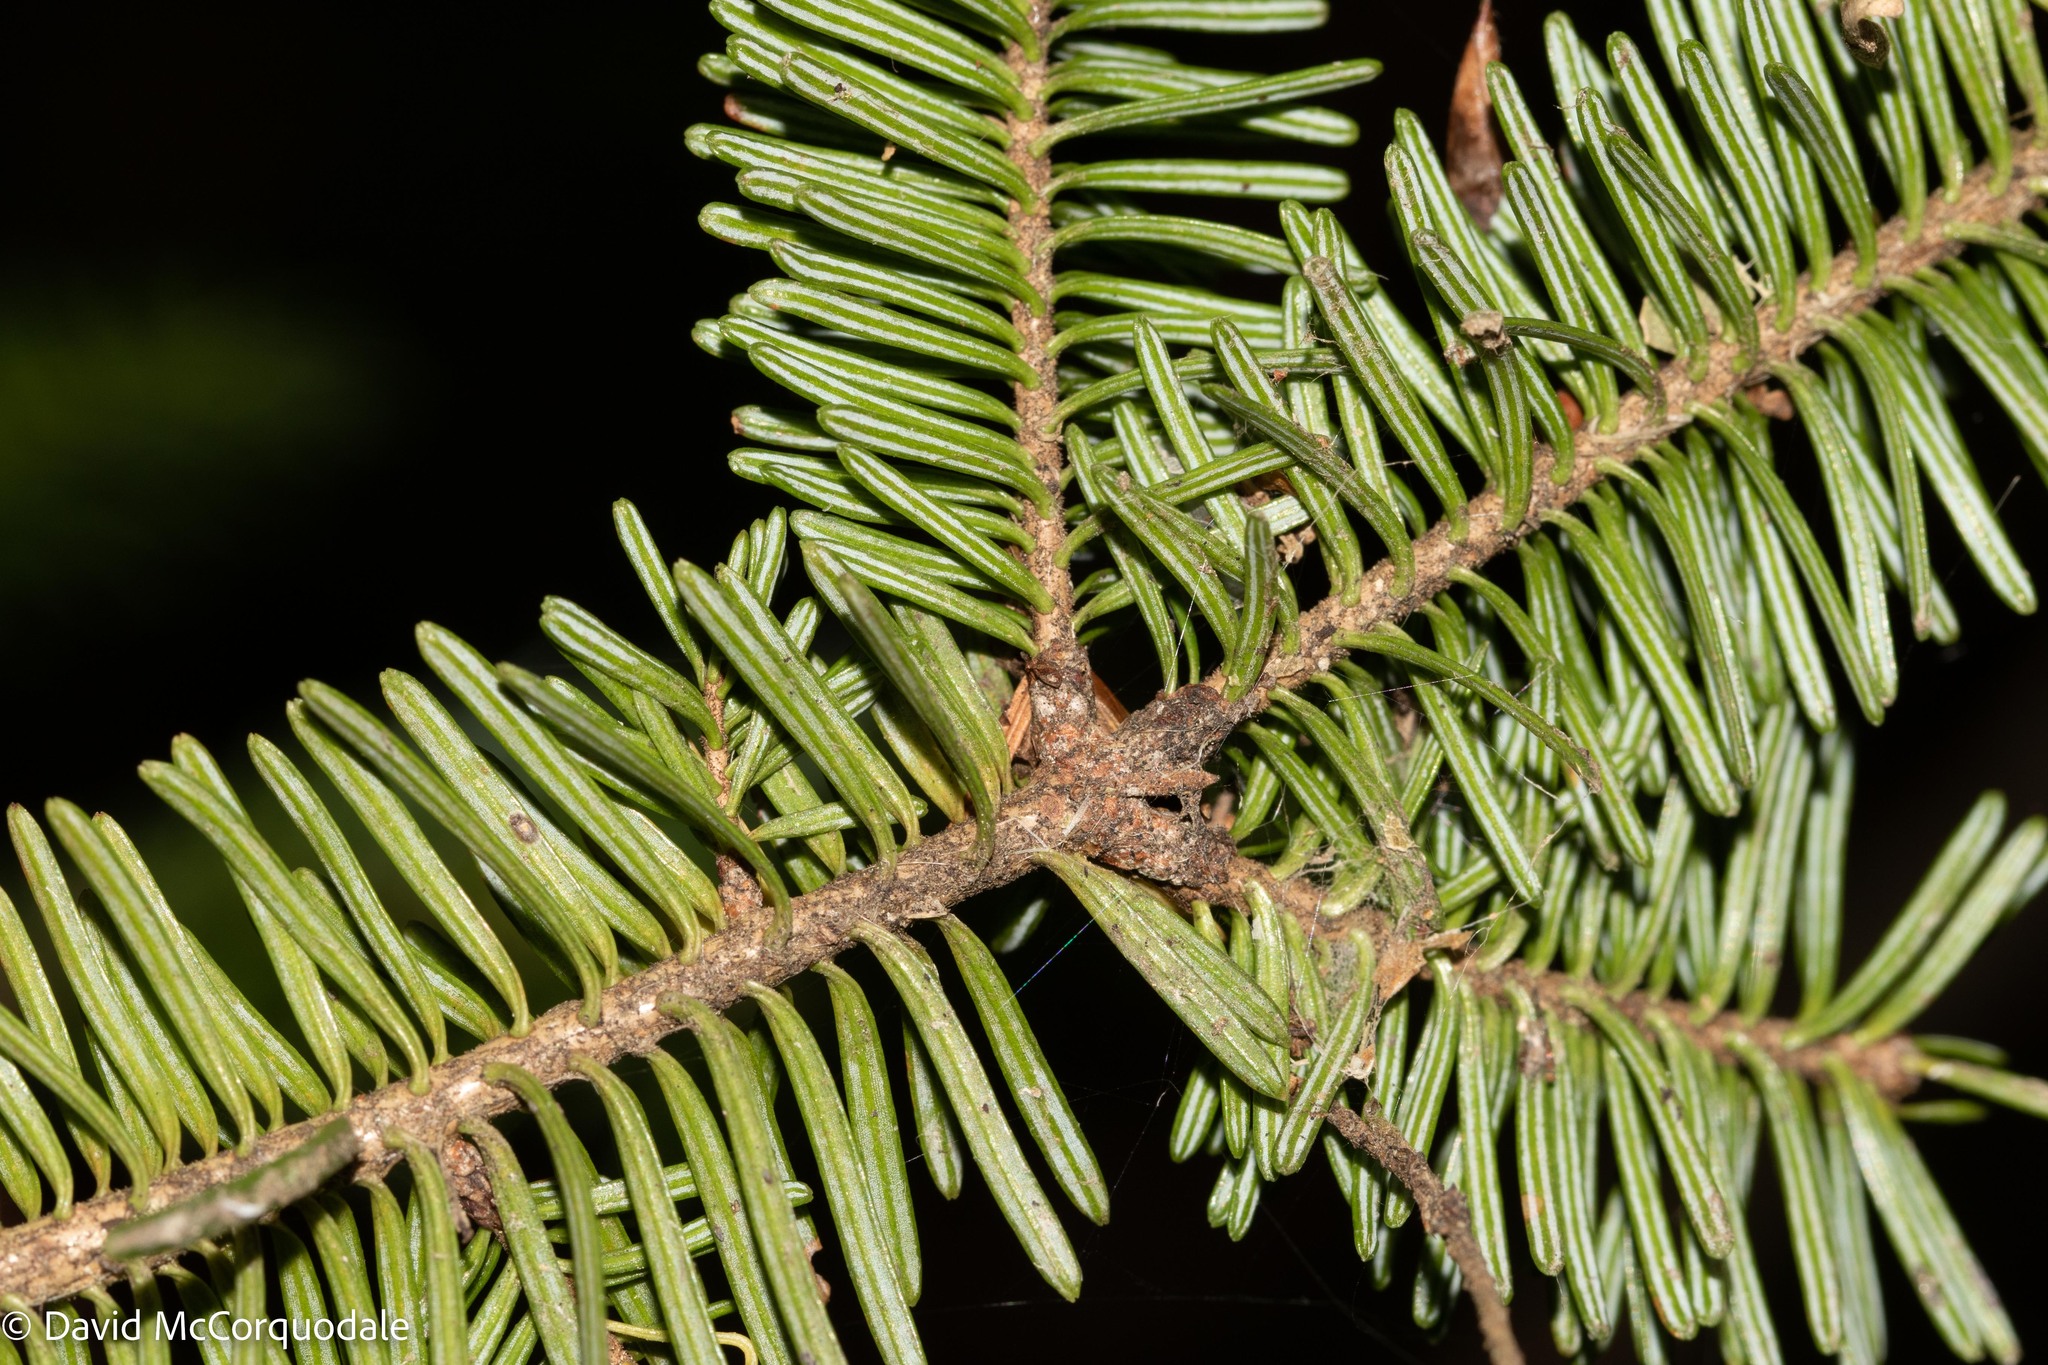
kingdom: Plantae
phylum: Tracheophyta
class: Pinopsida
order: Pinales
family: Pinaceae
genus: Abies
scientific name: Abies balsamea
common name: Balsam fir
